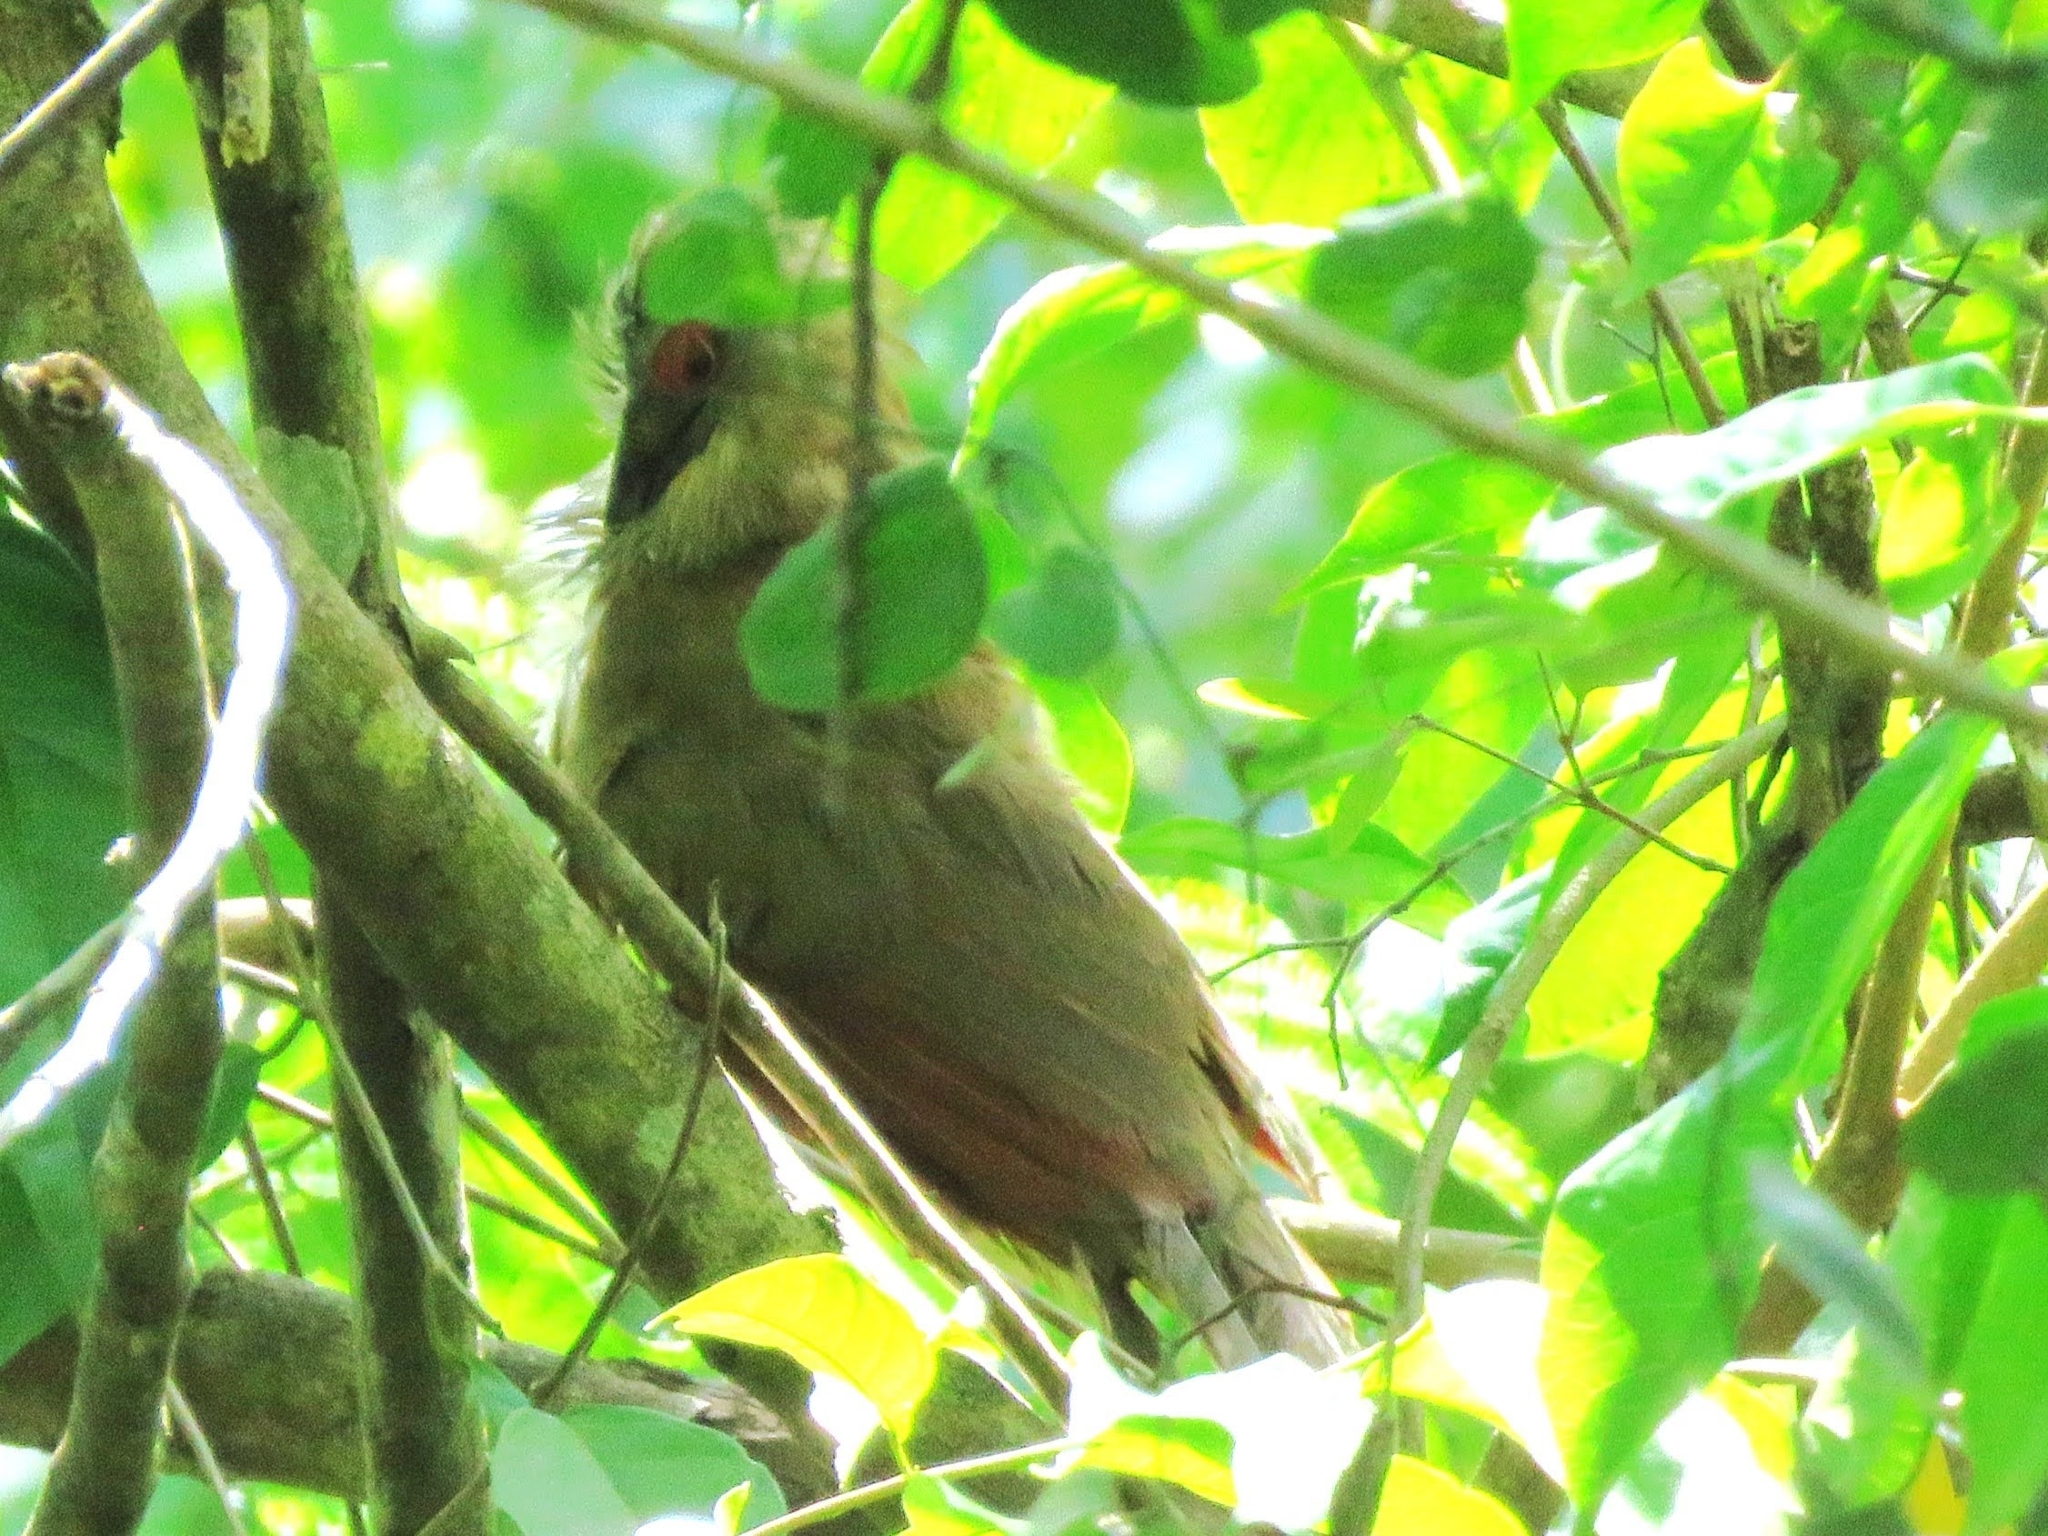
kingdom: Animalia
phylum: Chordata
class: Aves
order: Cuculiformes
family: Cuculidae
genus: Saurothera
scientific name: Saurothera merlini
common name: Great lizard-cuckoo
